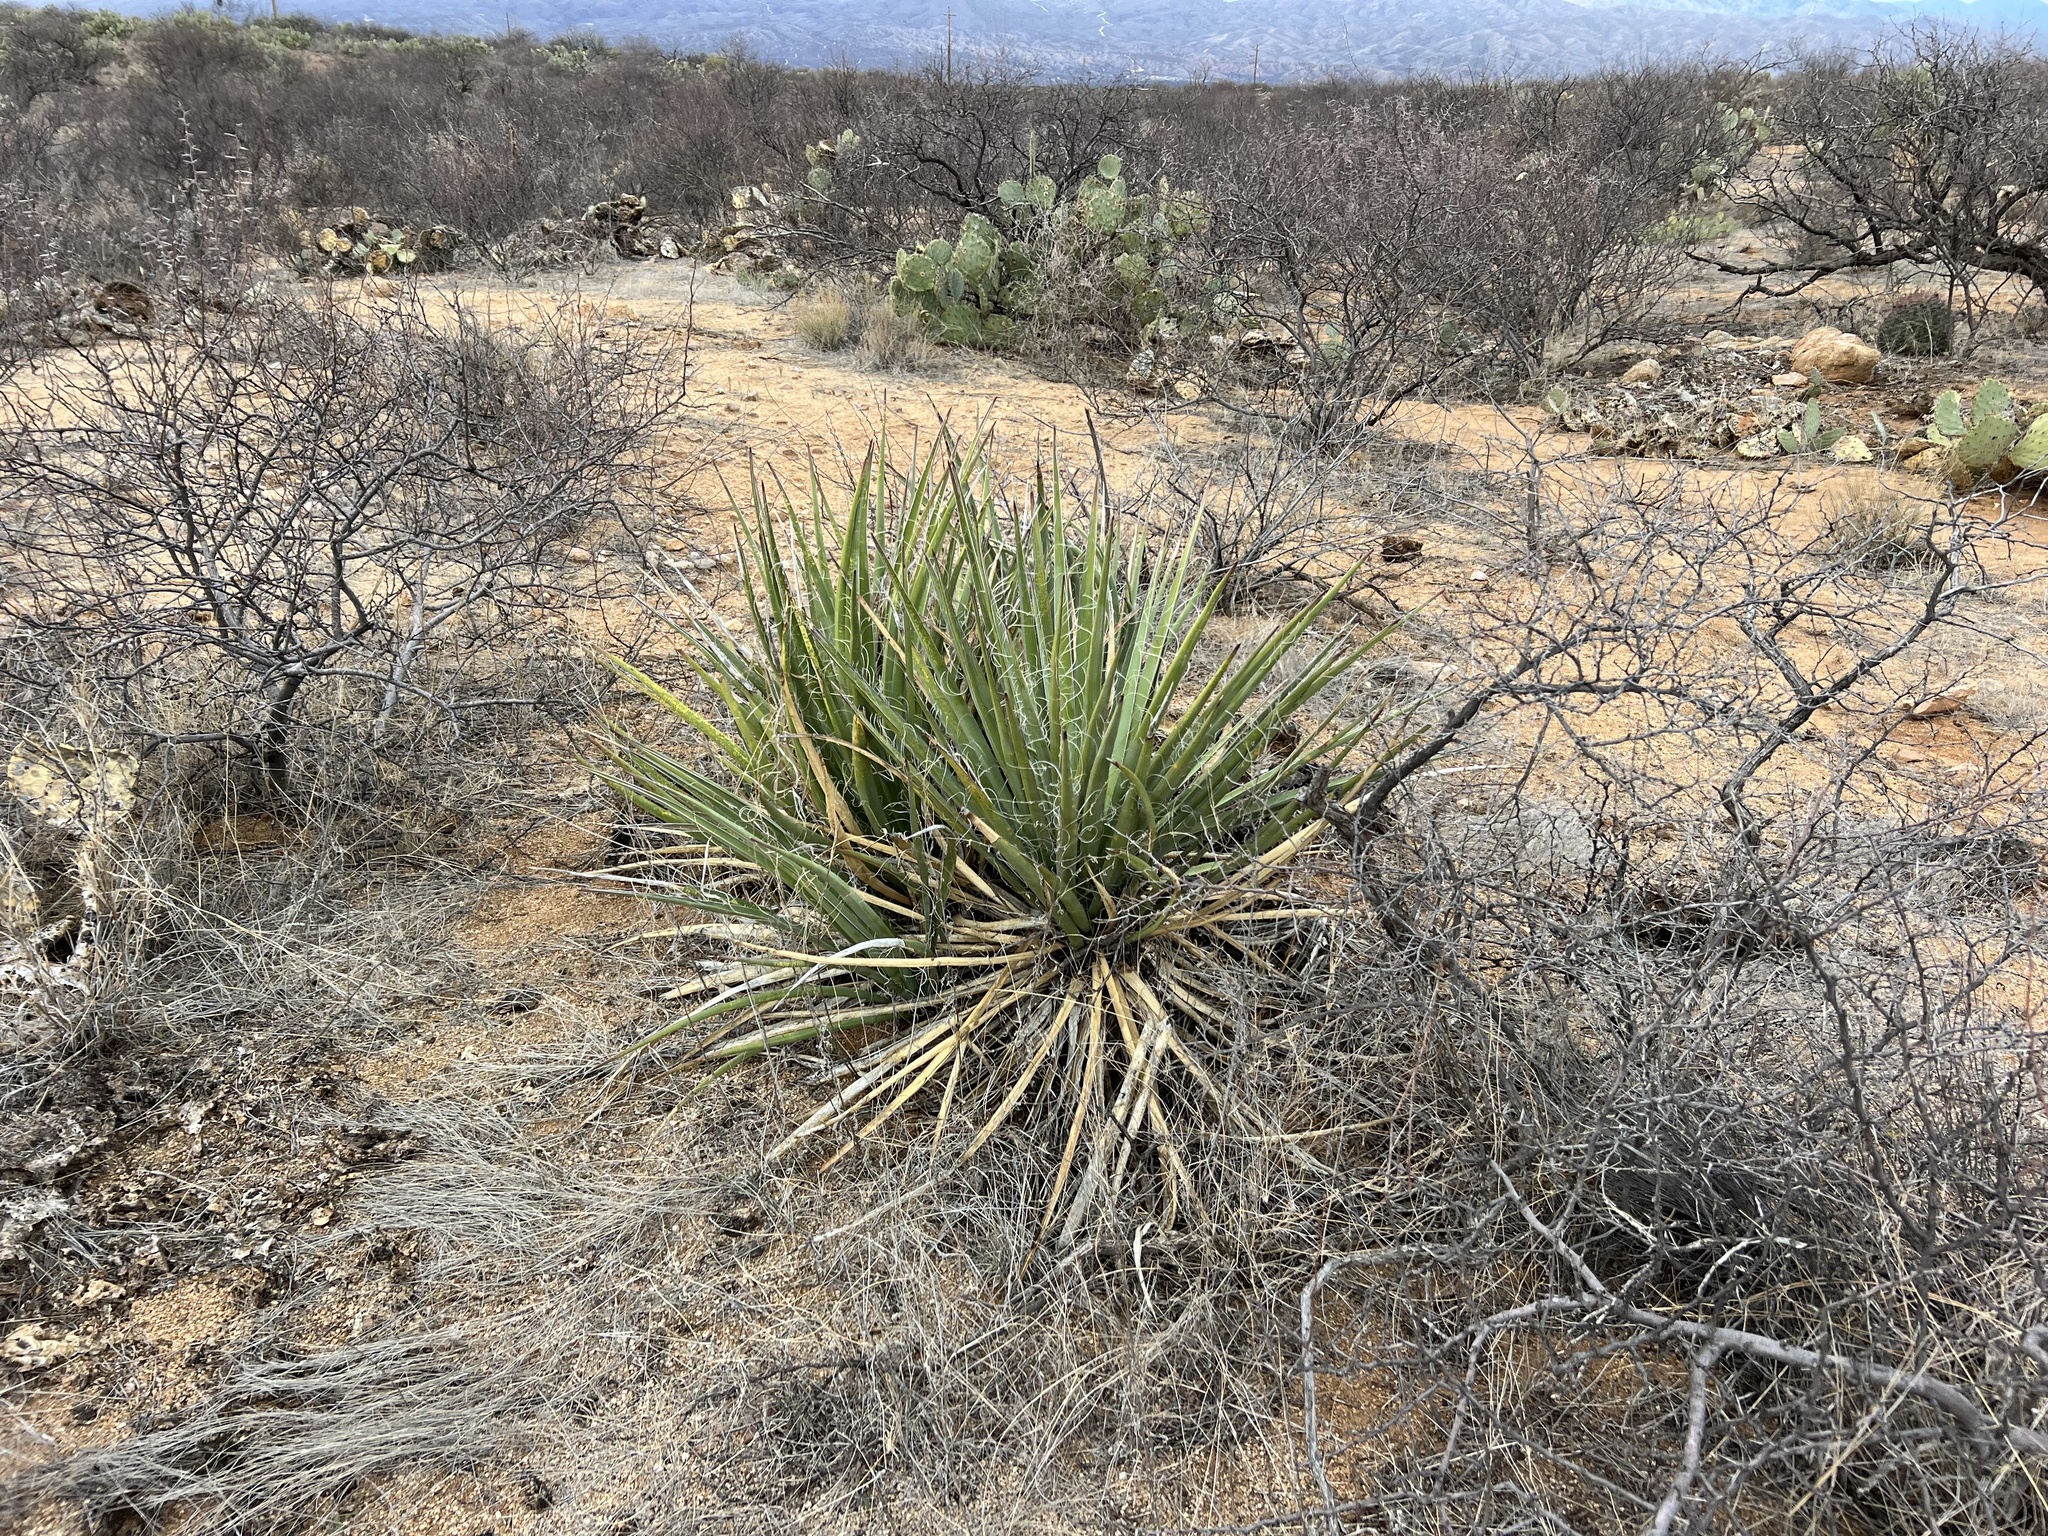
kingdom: Plantae
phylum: Tracheophyta
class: Liliopsida
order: Asparagales
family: Asparagaceae
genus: Yucca
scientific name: Yucca baccata
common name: Banana yucca
